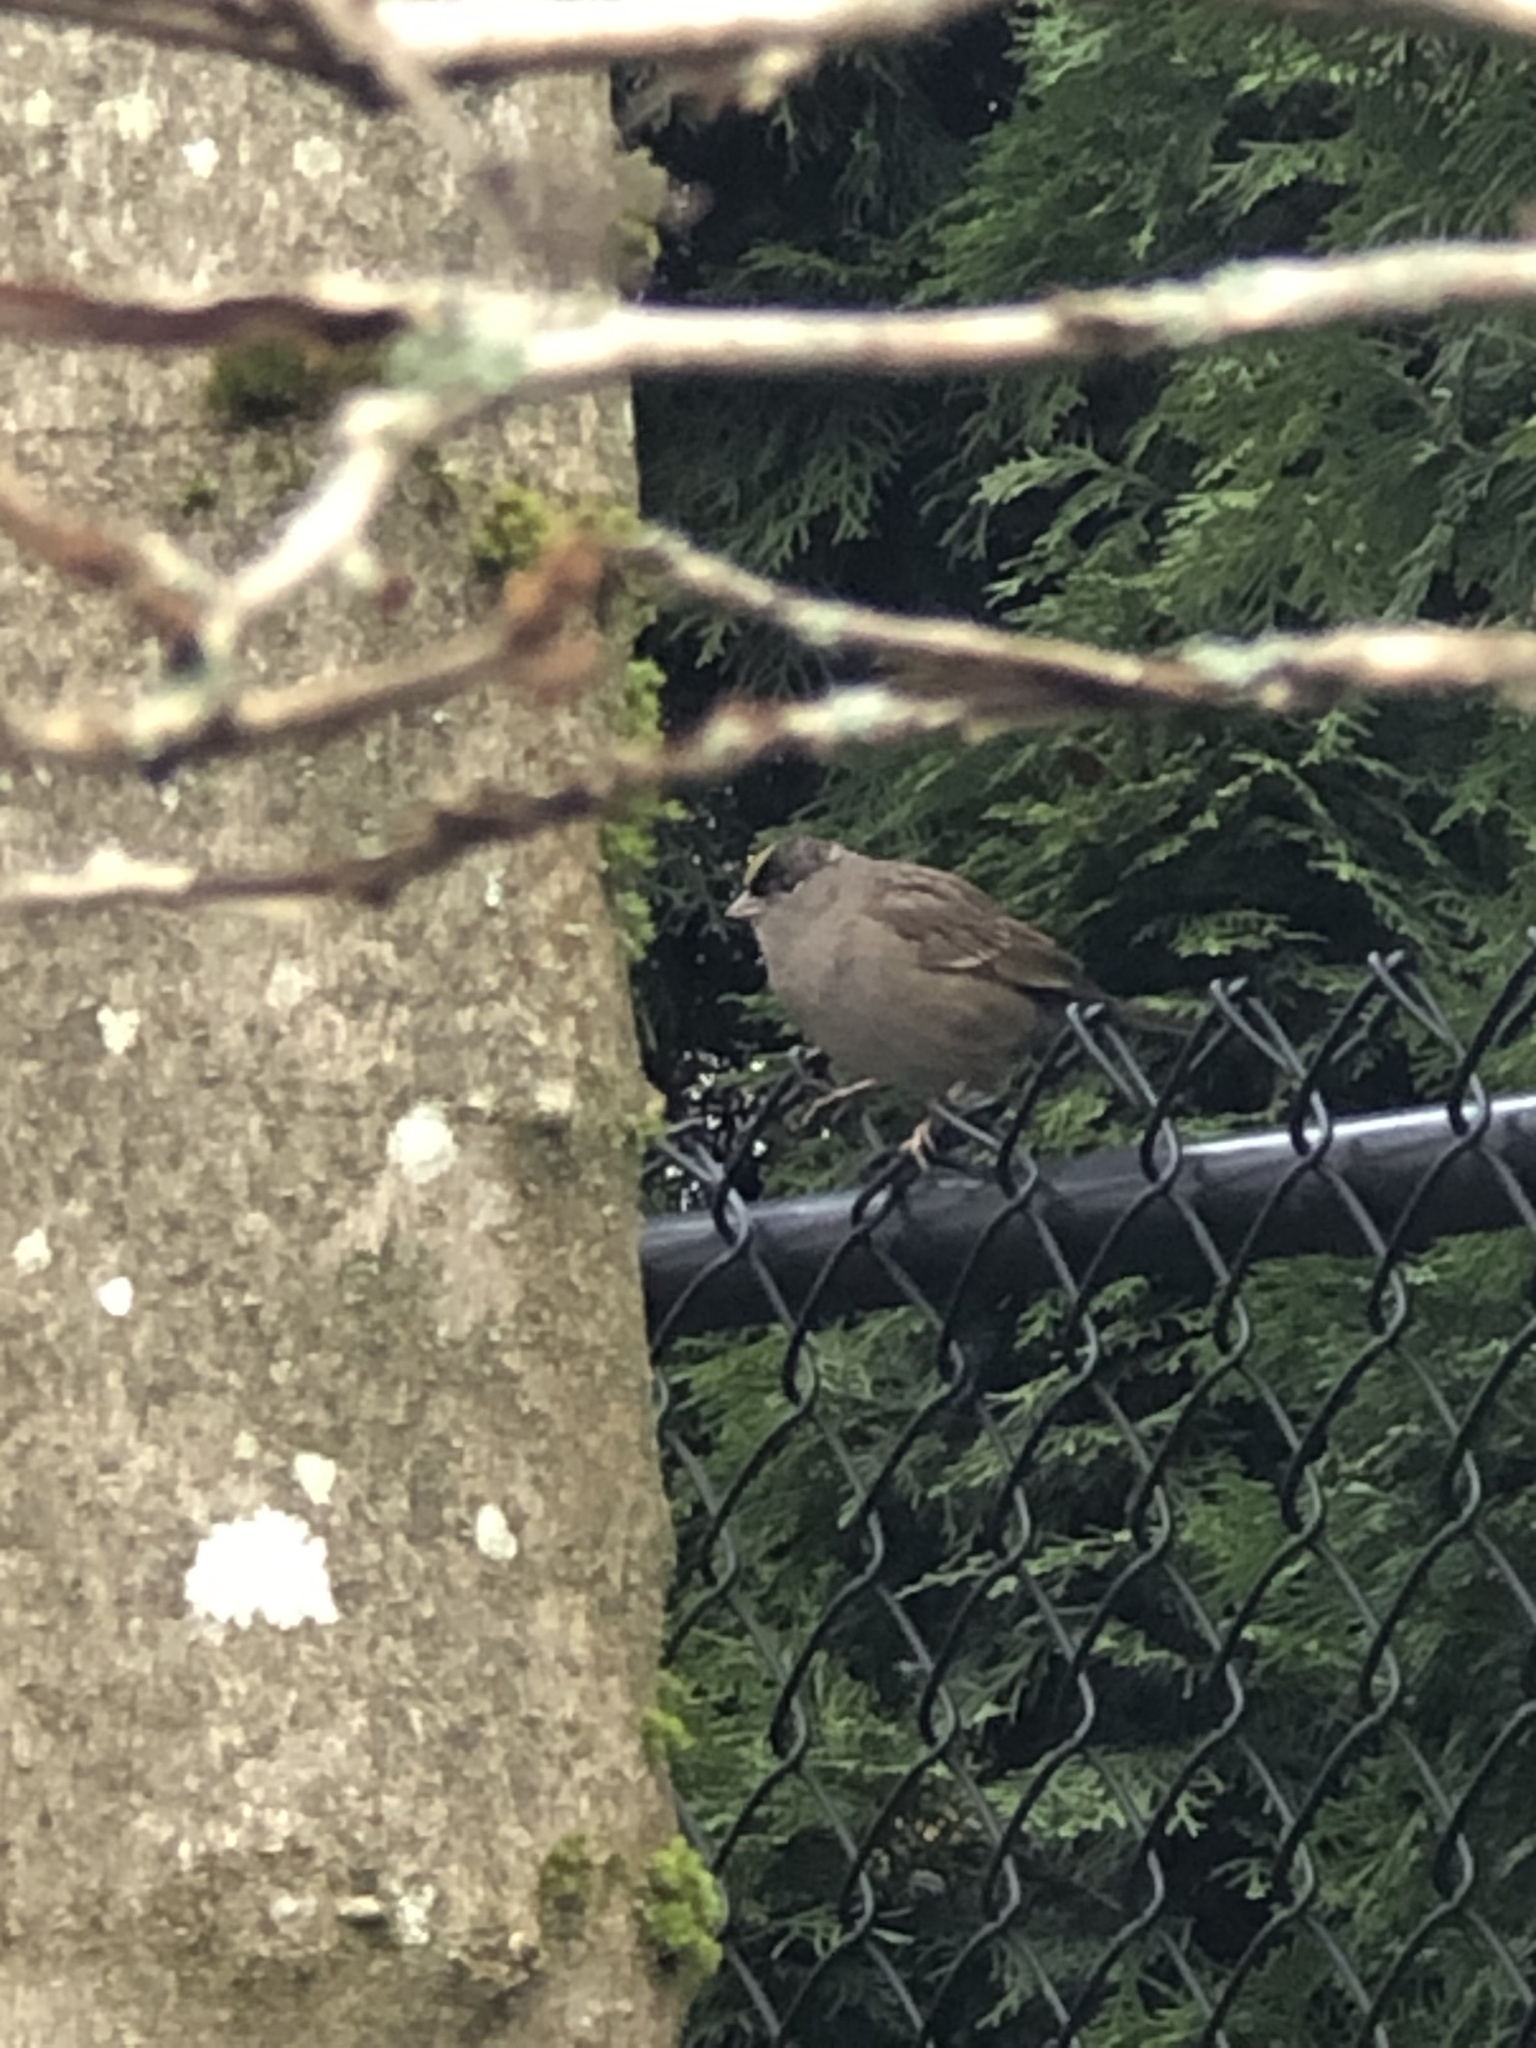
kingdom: Animalia
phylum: Chordata
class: Aves
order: Passeriformes
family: Passerellidae
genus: Zonotrichia
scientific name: Zonotrichia atricapilla
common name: Golden-crowned sparrow
